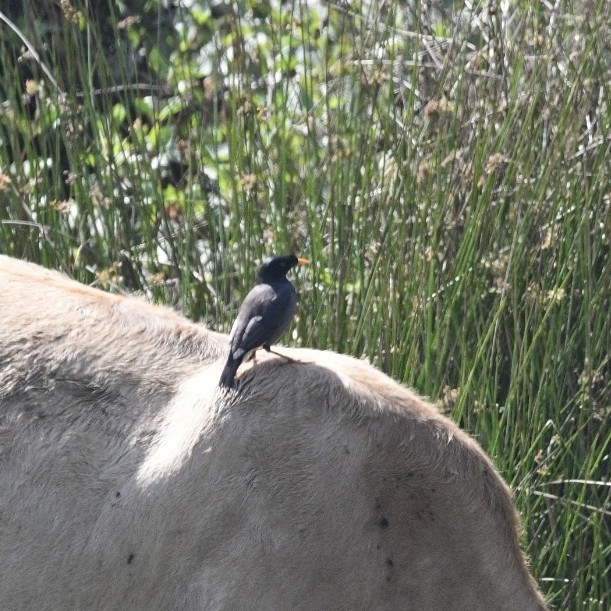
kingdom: Animalia
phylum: Chordata
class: Aves
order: Passeriformes
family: Sturnidae
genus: Acridotheres
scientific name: Acridotheres fuscus
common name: Jungle myna
